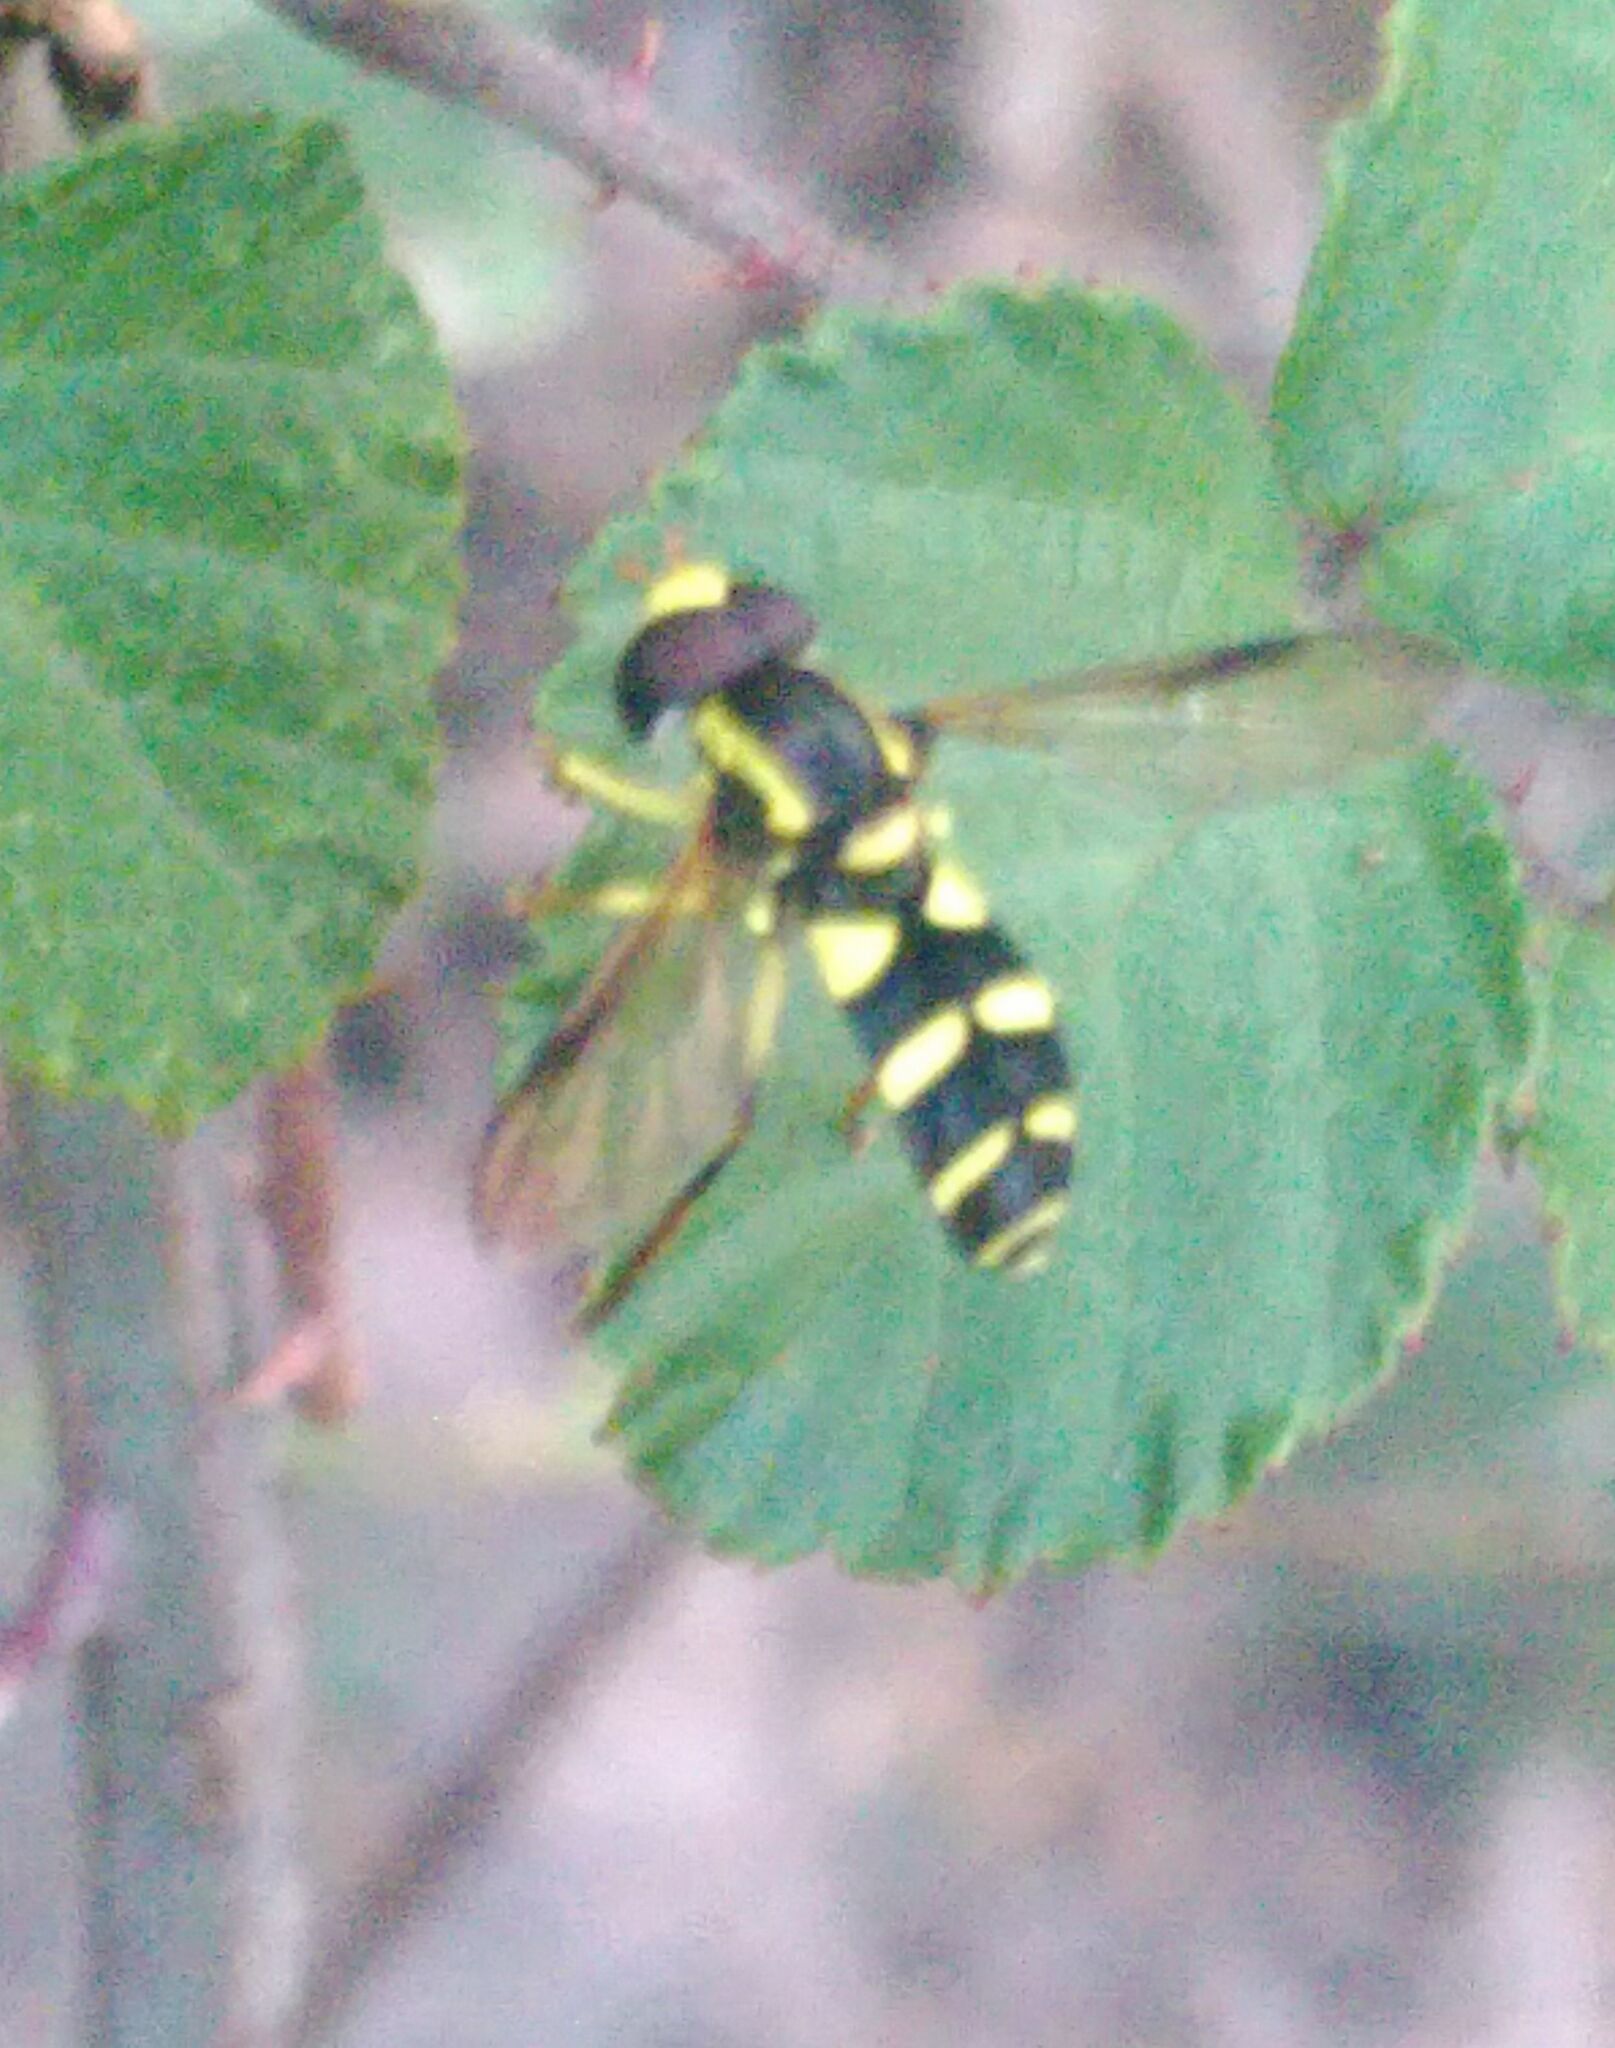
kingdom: Animalia
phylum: Arthropoda
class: Insecta
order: Diptera
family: Syrphidae
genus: Philhelius
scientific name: Philhelius dives
